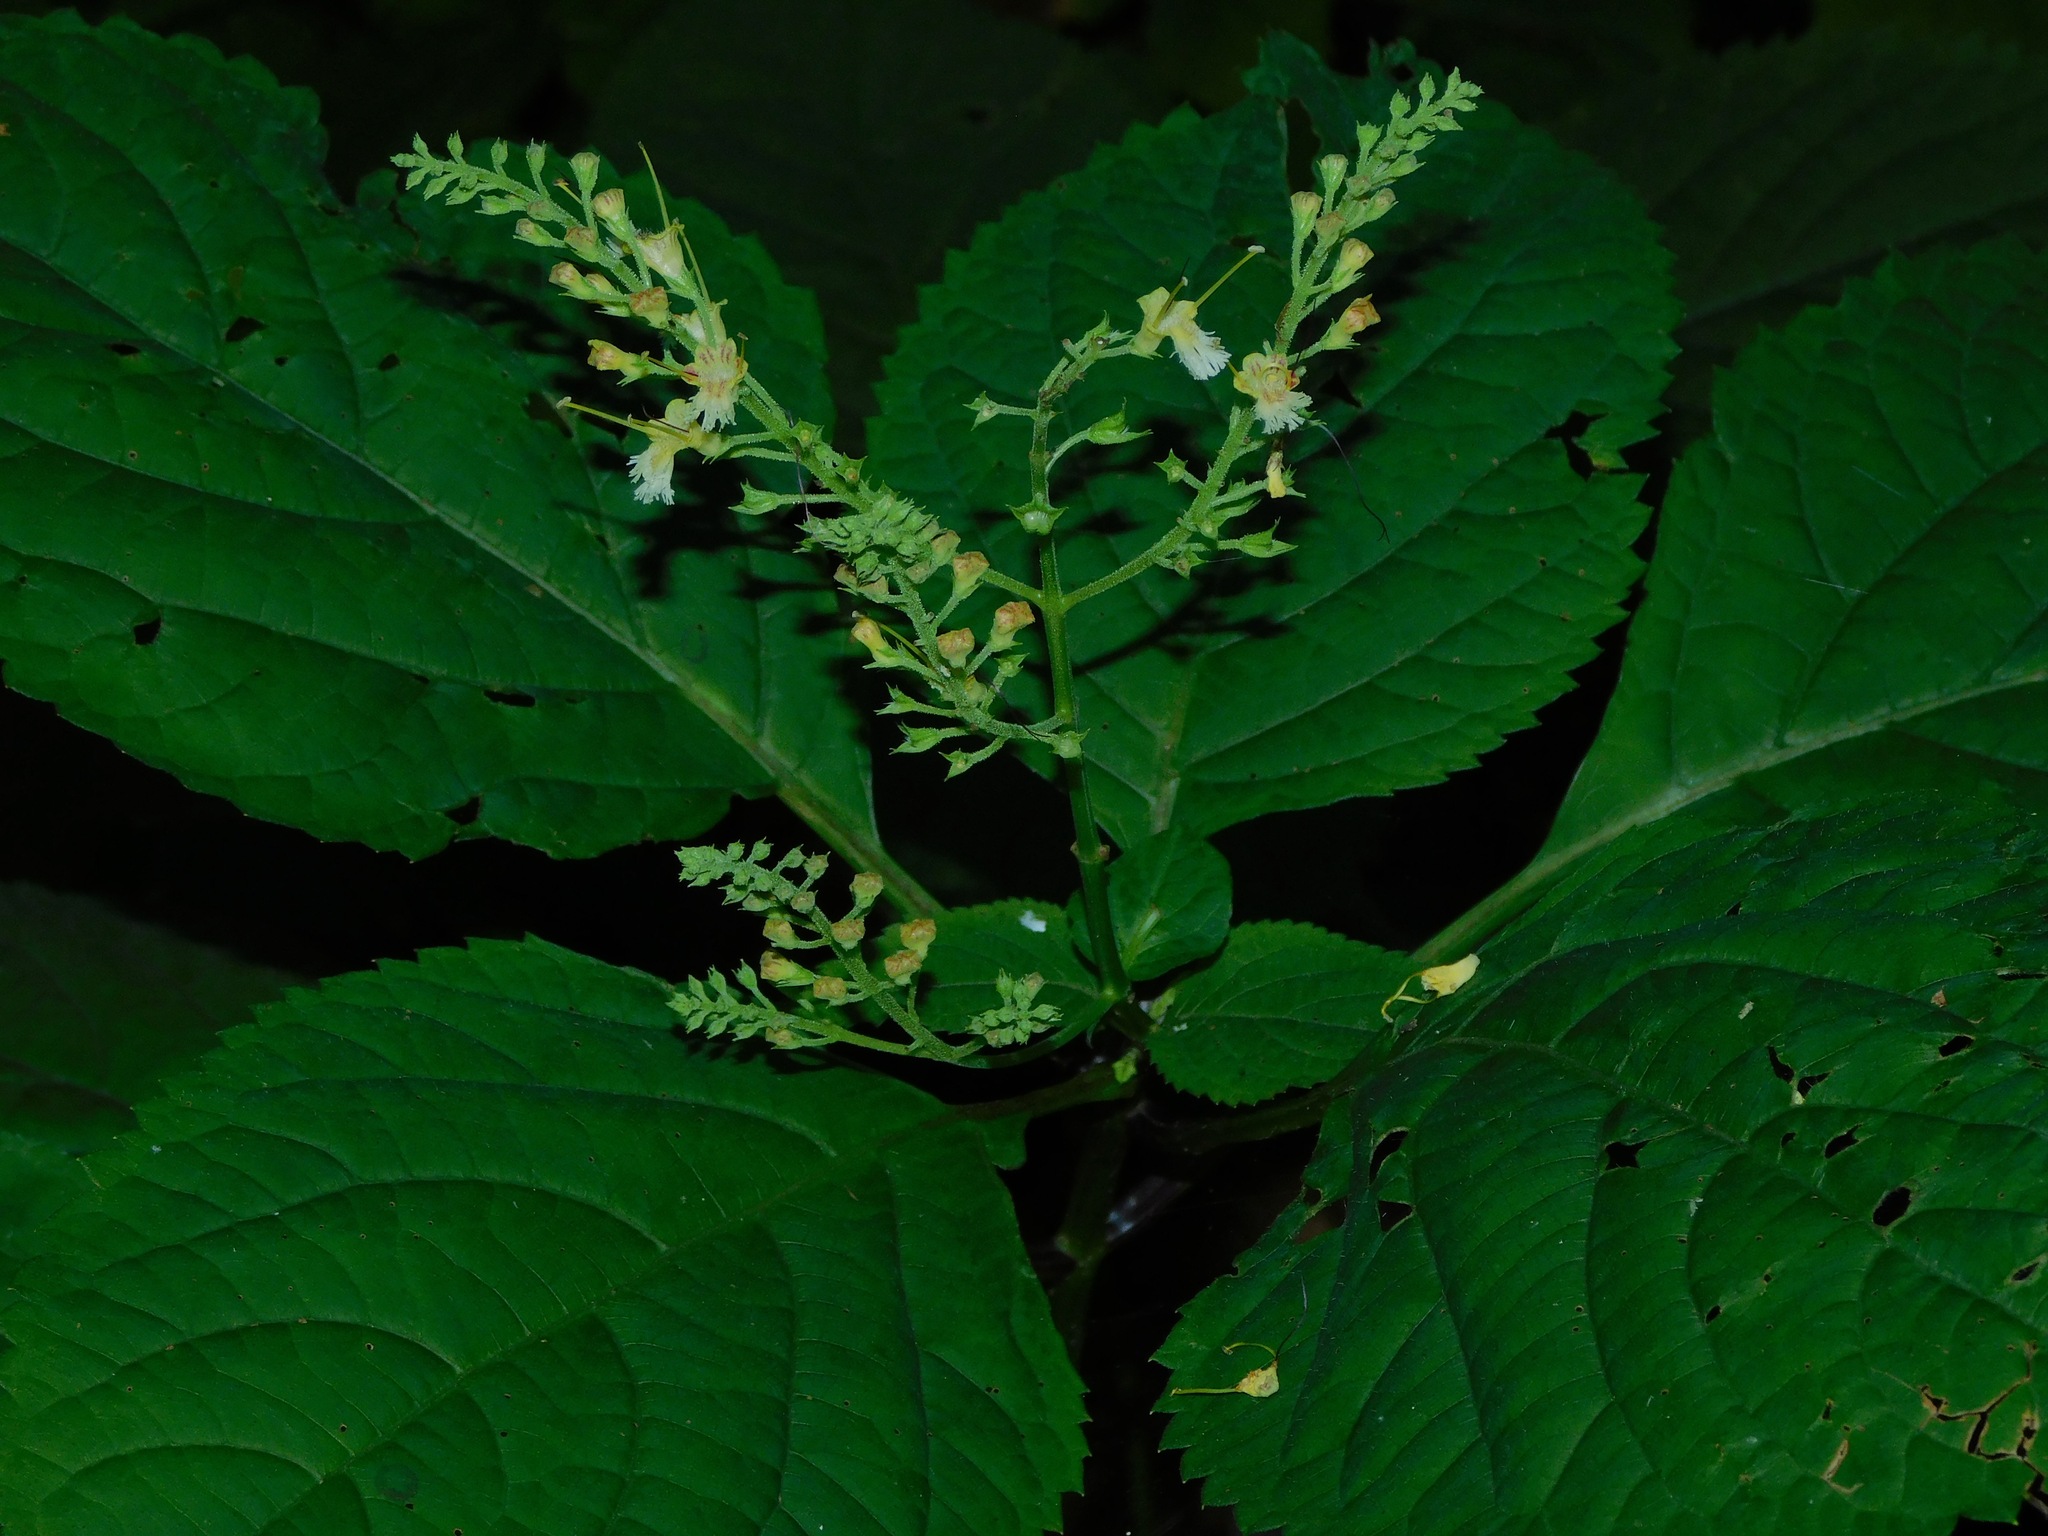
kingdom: Plantae
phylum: Tracheophyta
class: Magnoliopsida
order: Lamiales
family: Lamiaceae
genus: Collinsonia
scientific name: Collinsonia canadensis
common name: Northern horsebalm
